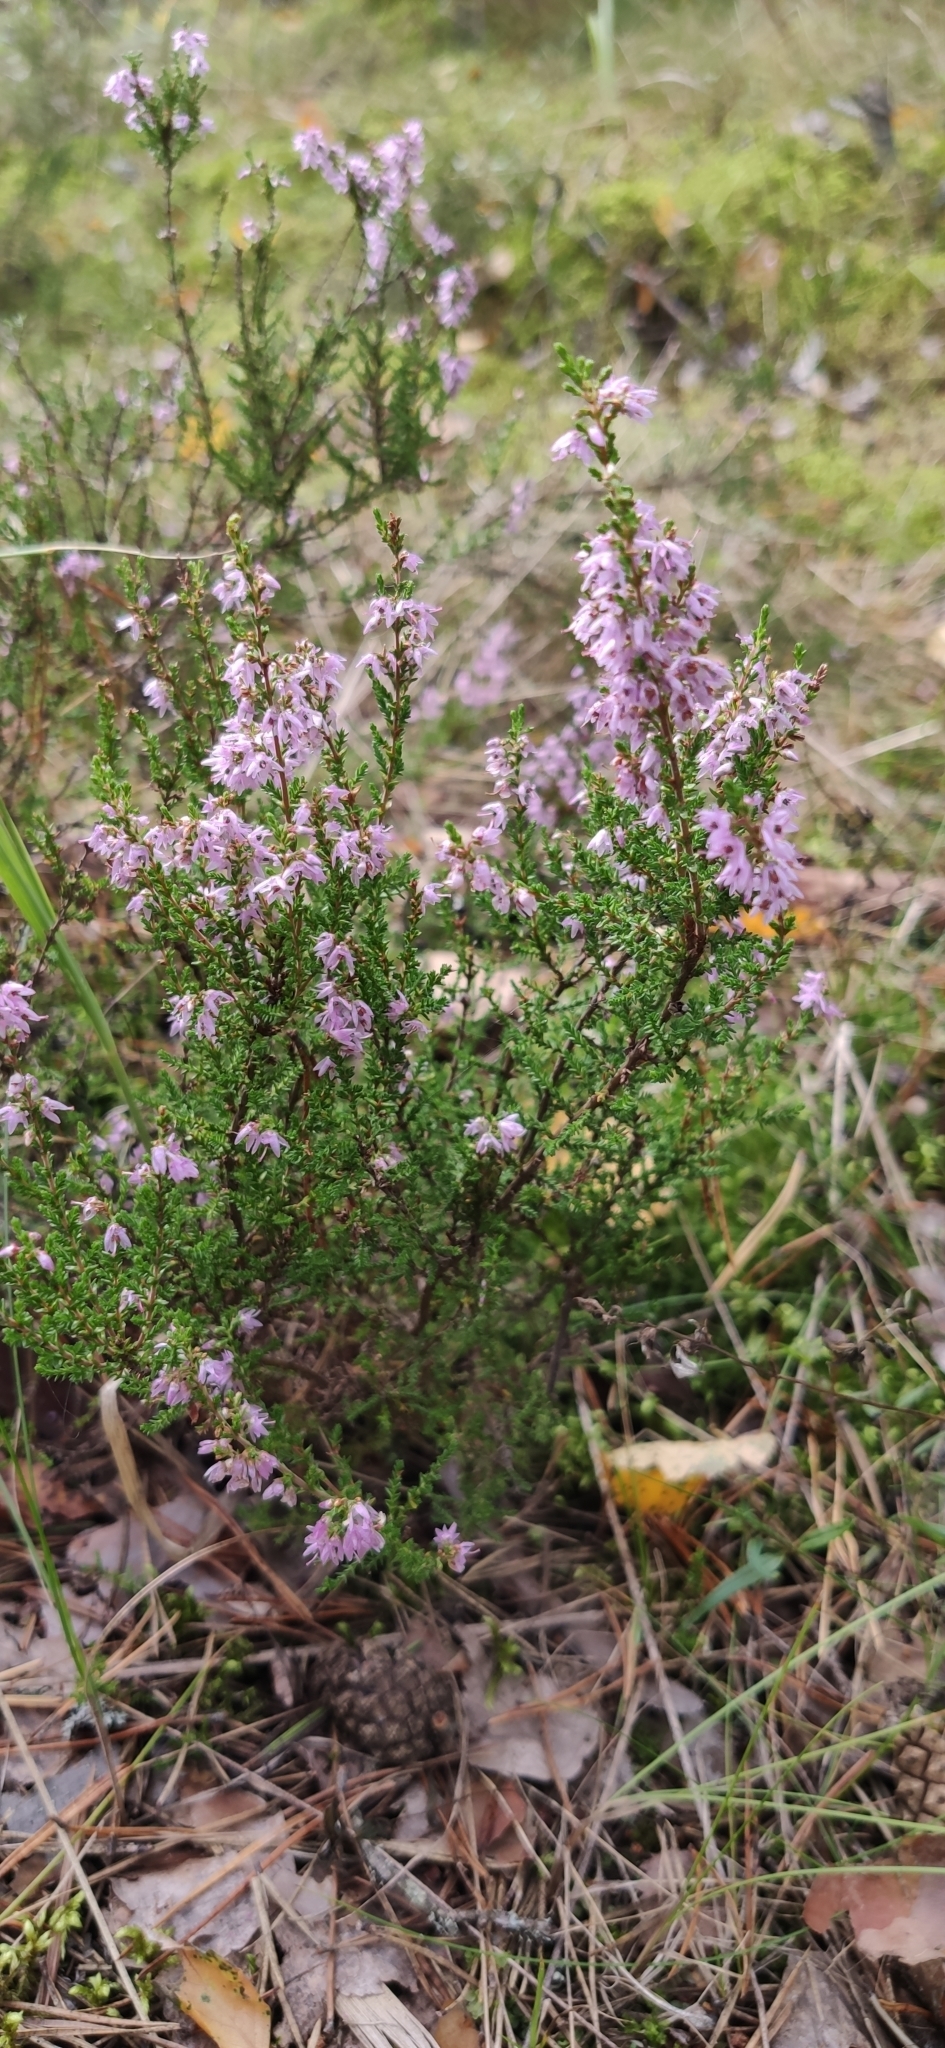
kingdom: Plantae
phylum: Tracheophyta
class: Magnoliopsida
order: Ericales
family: Ericaceae
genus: Calluna
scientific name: Calluna vulgaris
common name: Heather
